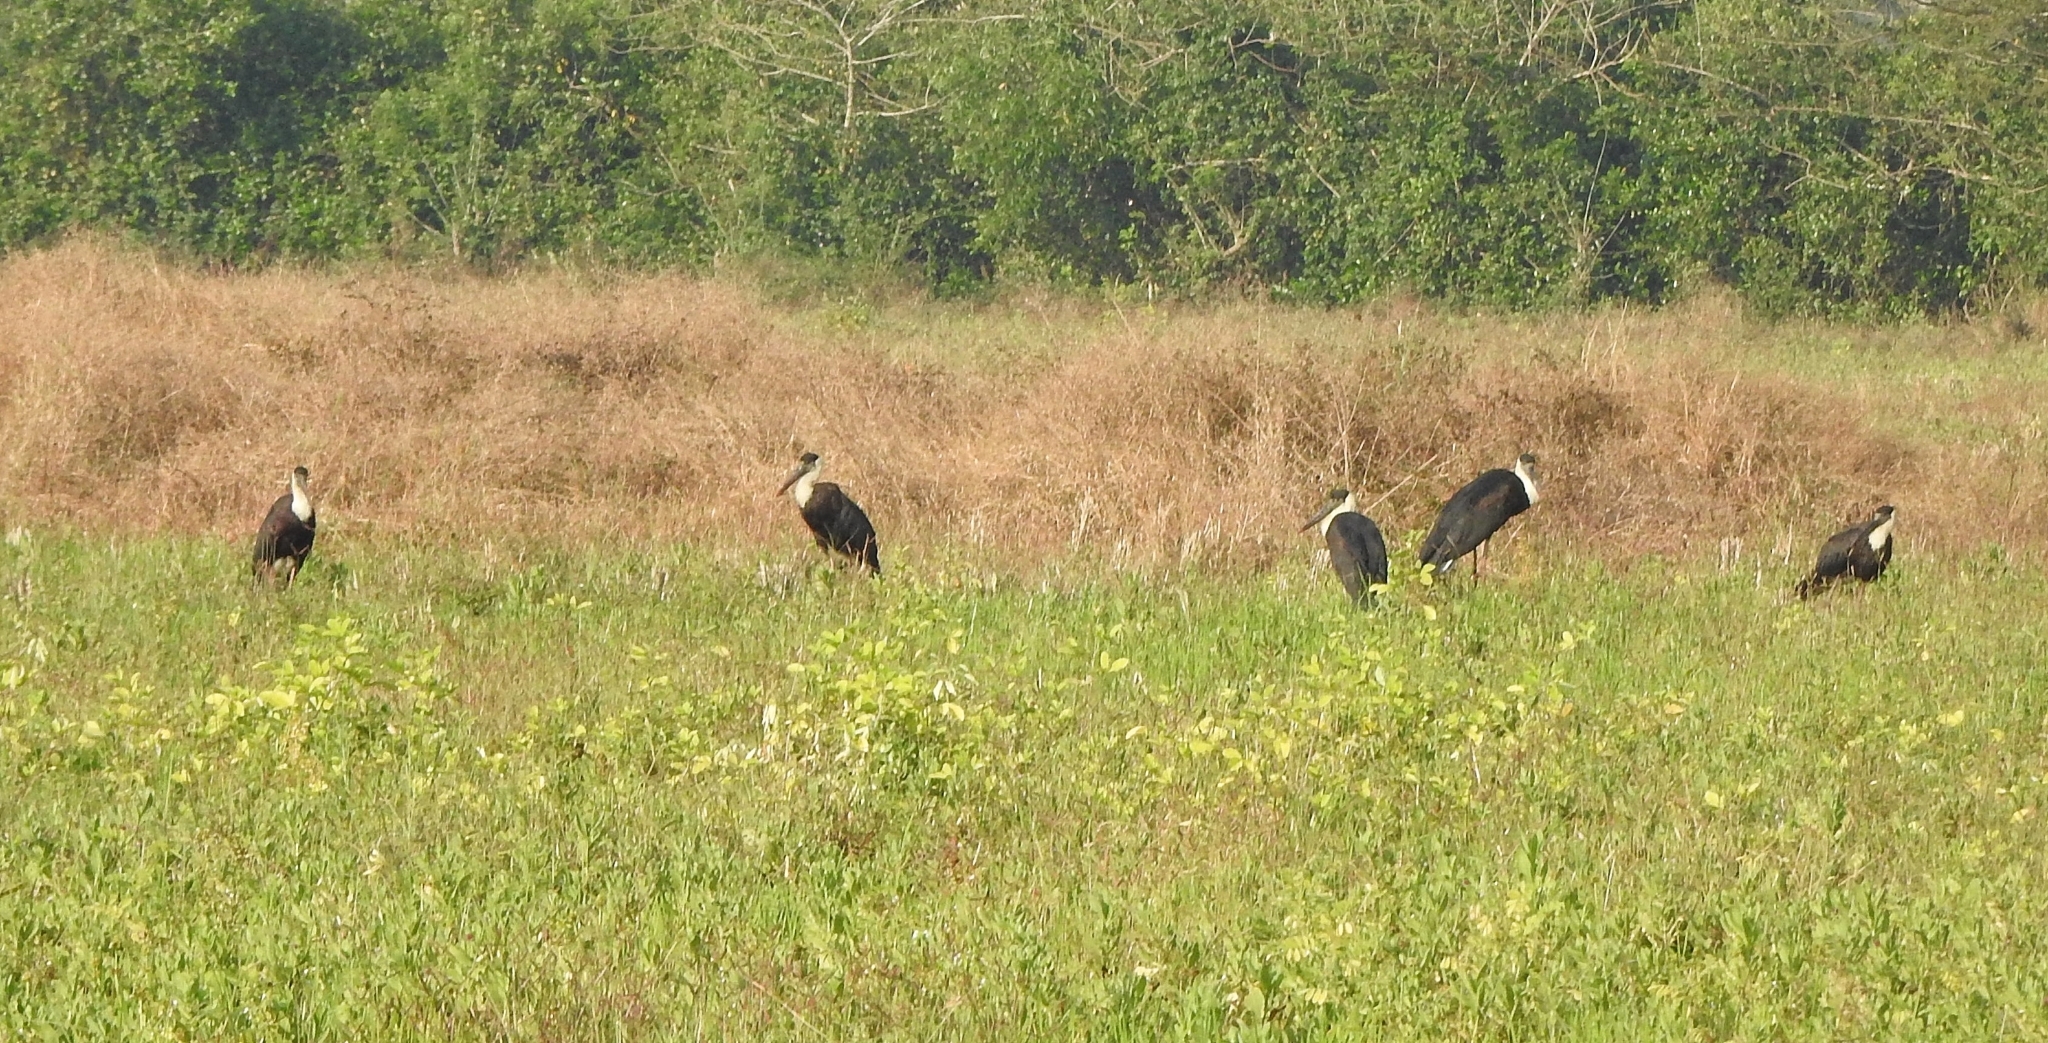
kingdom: Animalia
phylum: Chordata
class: Aves
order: Ciconiiformes
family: Ciconiidae
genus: Ciconia
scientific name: Ciconia episcopus
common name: Woolly-necked stork
